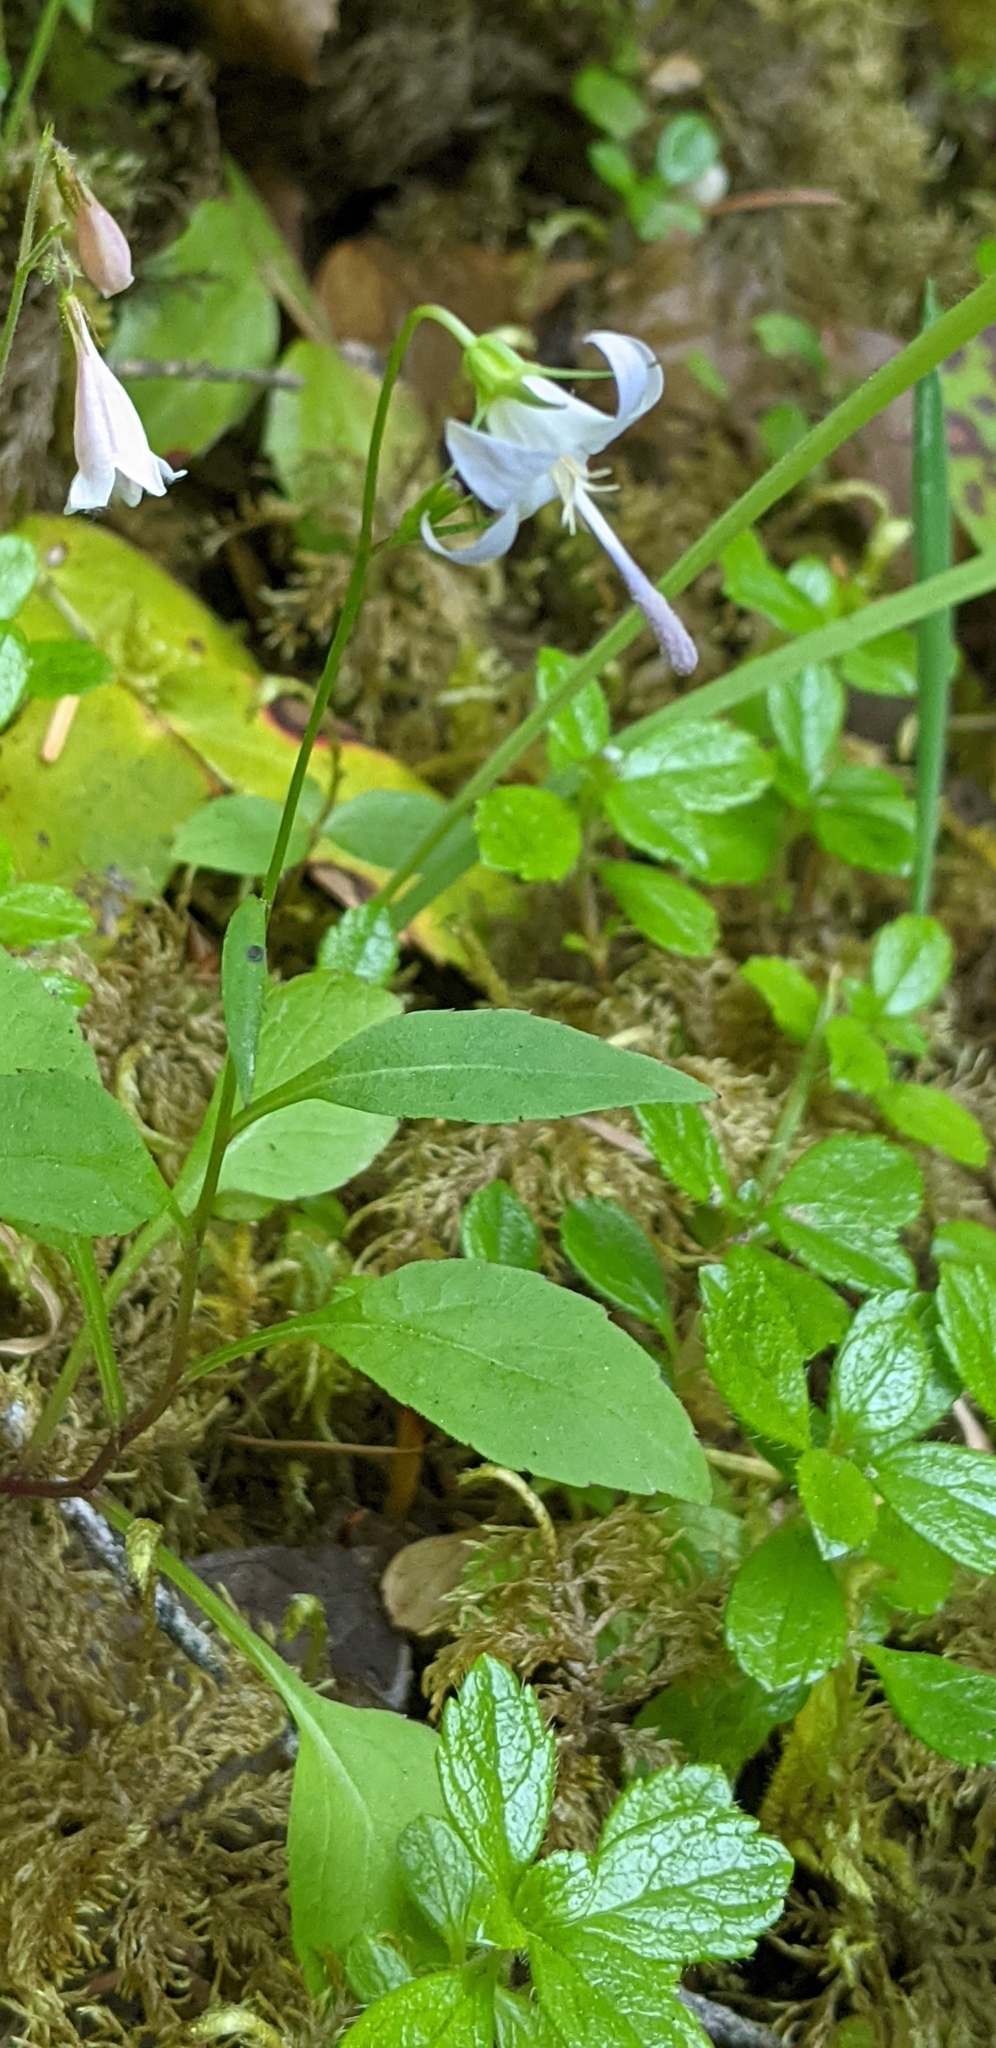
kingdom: Plantae
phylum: Tracheophyta
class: Magnoliopsida
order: Asterales
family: Campanulaceae
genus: Campanula
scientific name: Campanula scouleri
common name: Scouler's harebell
